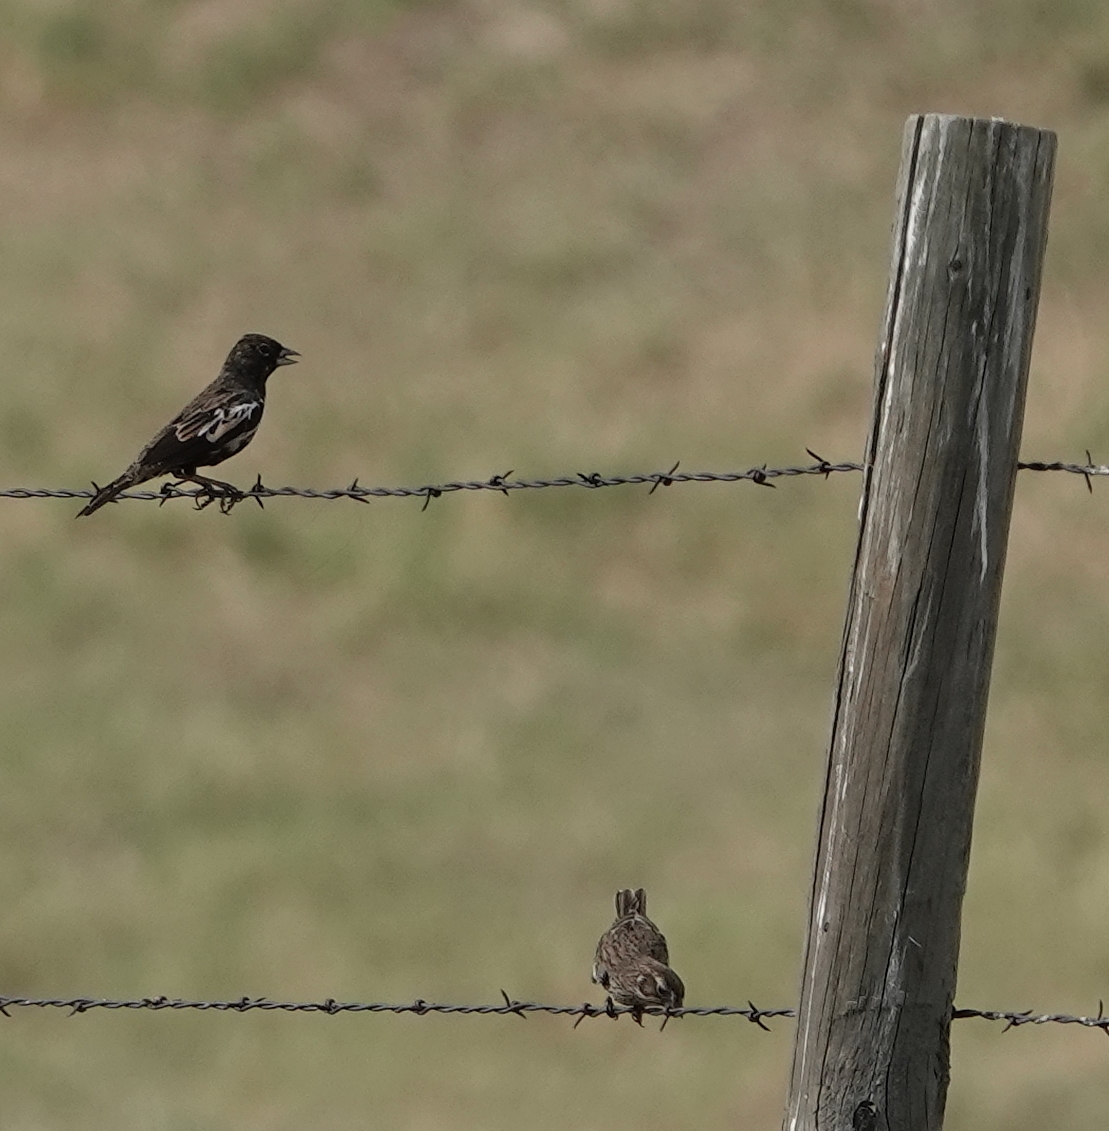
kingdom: Animalia
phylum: Chordata
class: Aves
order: Passeriformes
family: Passerellidae
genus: Calamospiza
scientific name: Calamospiza melanocorys
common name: Lark bunting
